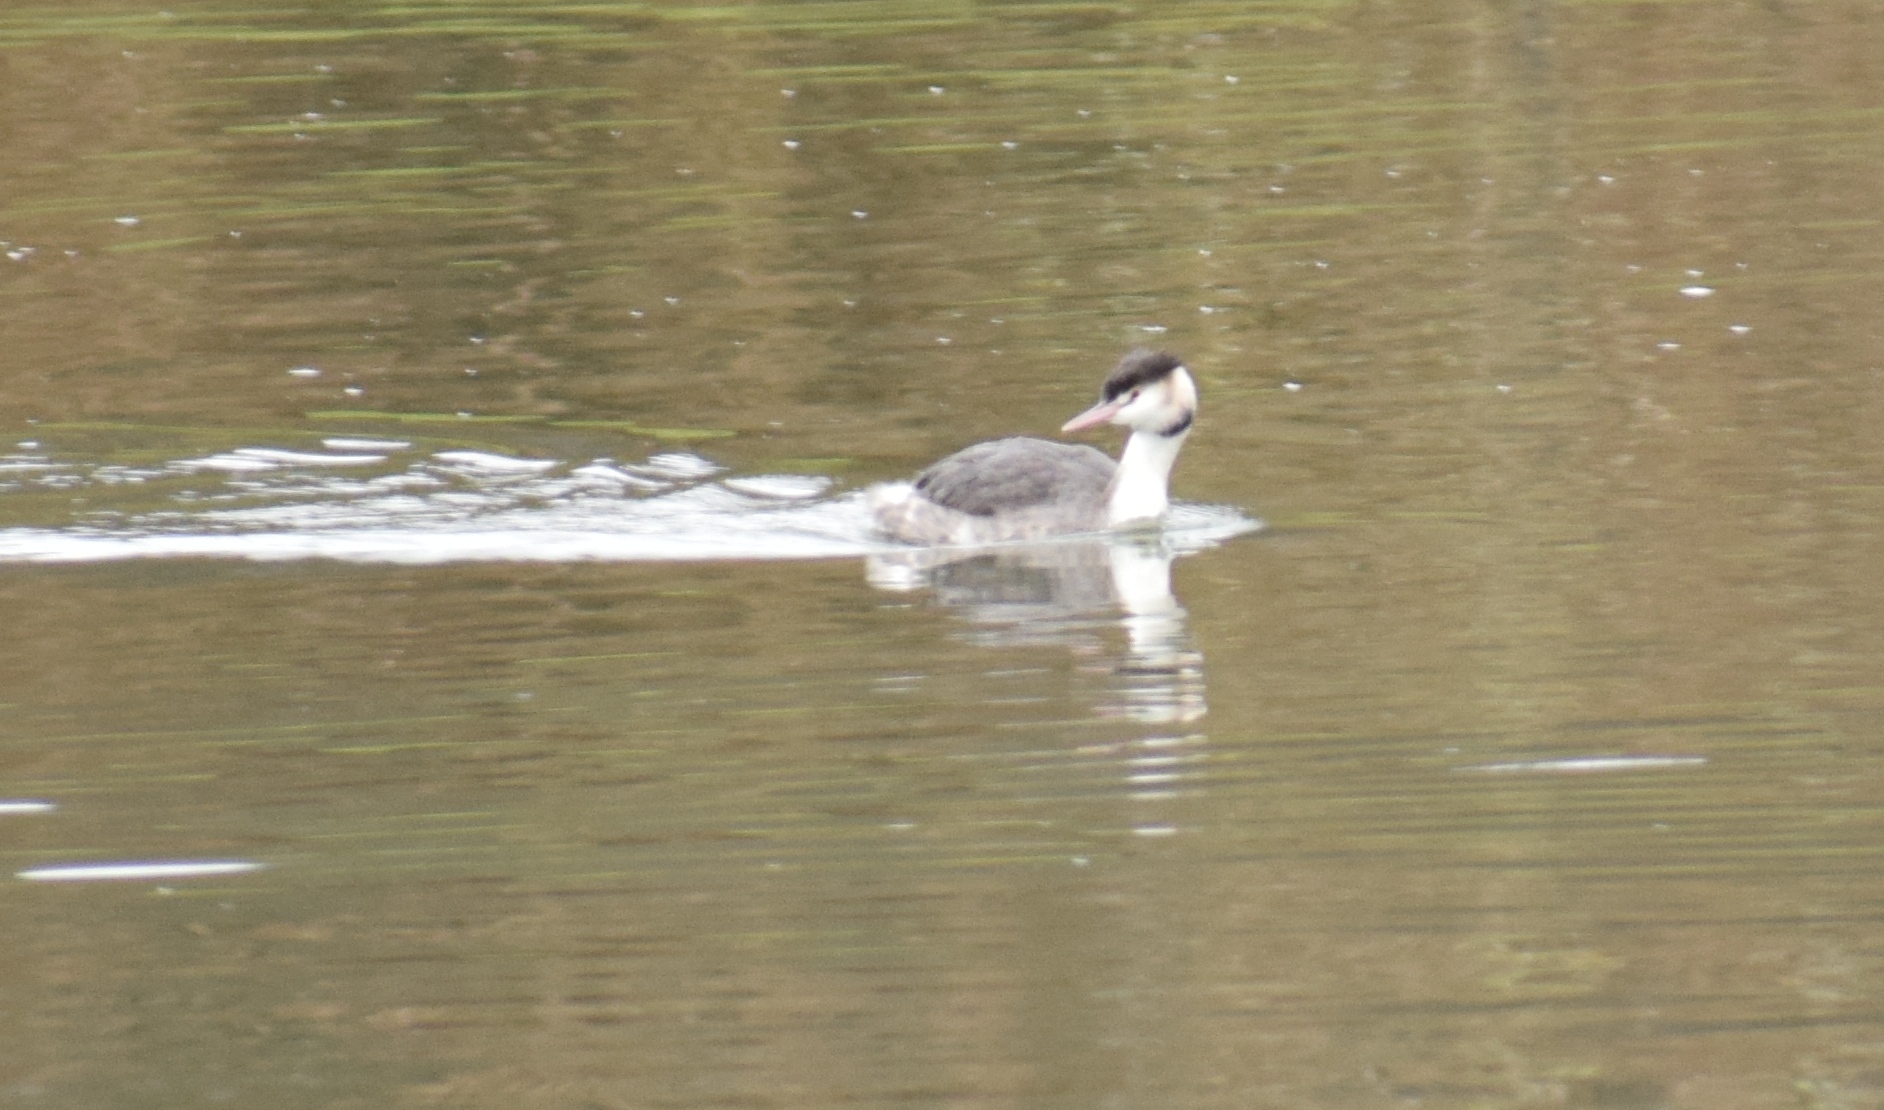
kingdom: Animalia
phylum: Chordata
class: Aves
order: Podicipediformes
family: Podicipedidae
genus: Podiceps
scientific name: Podiceps cristatus
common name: Great crested grebe
